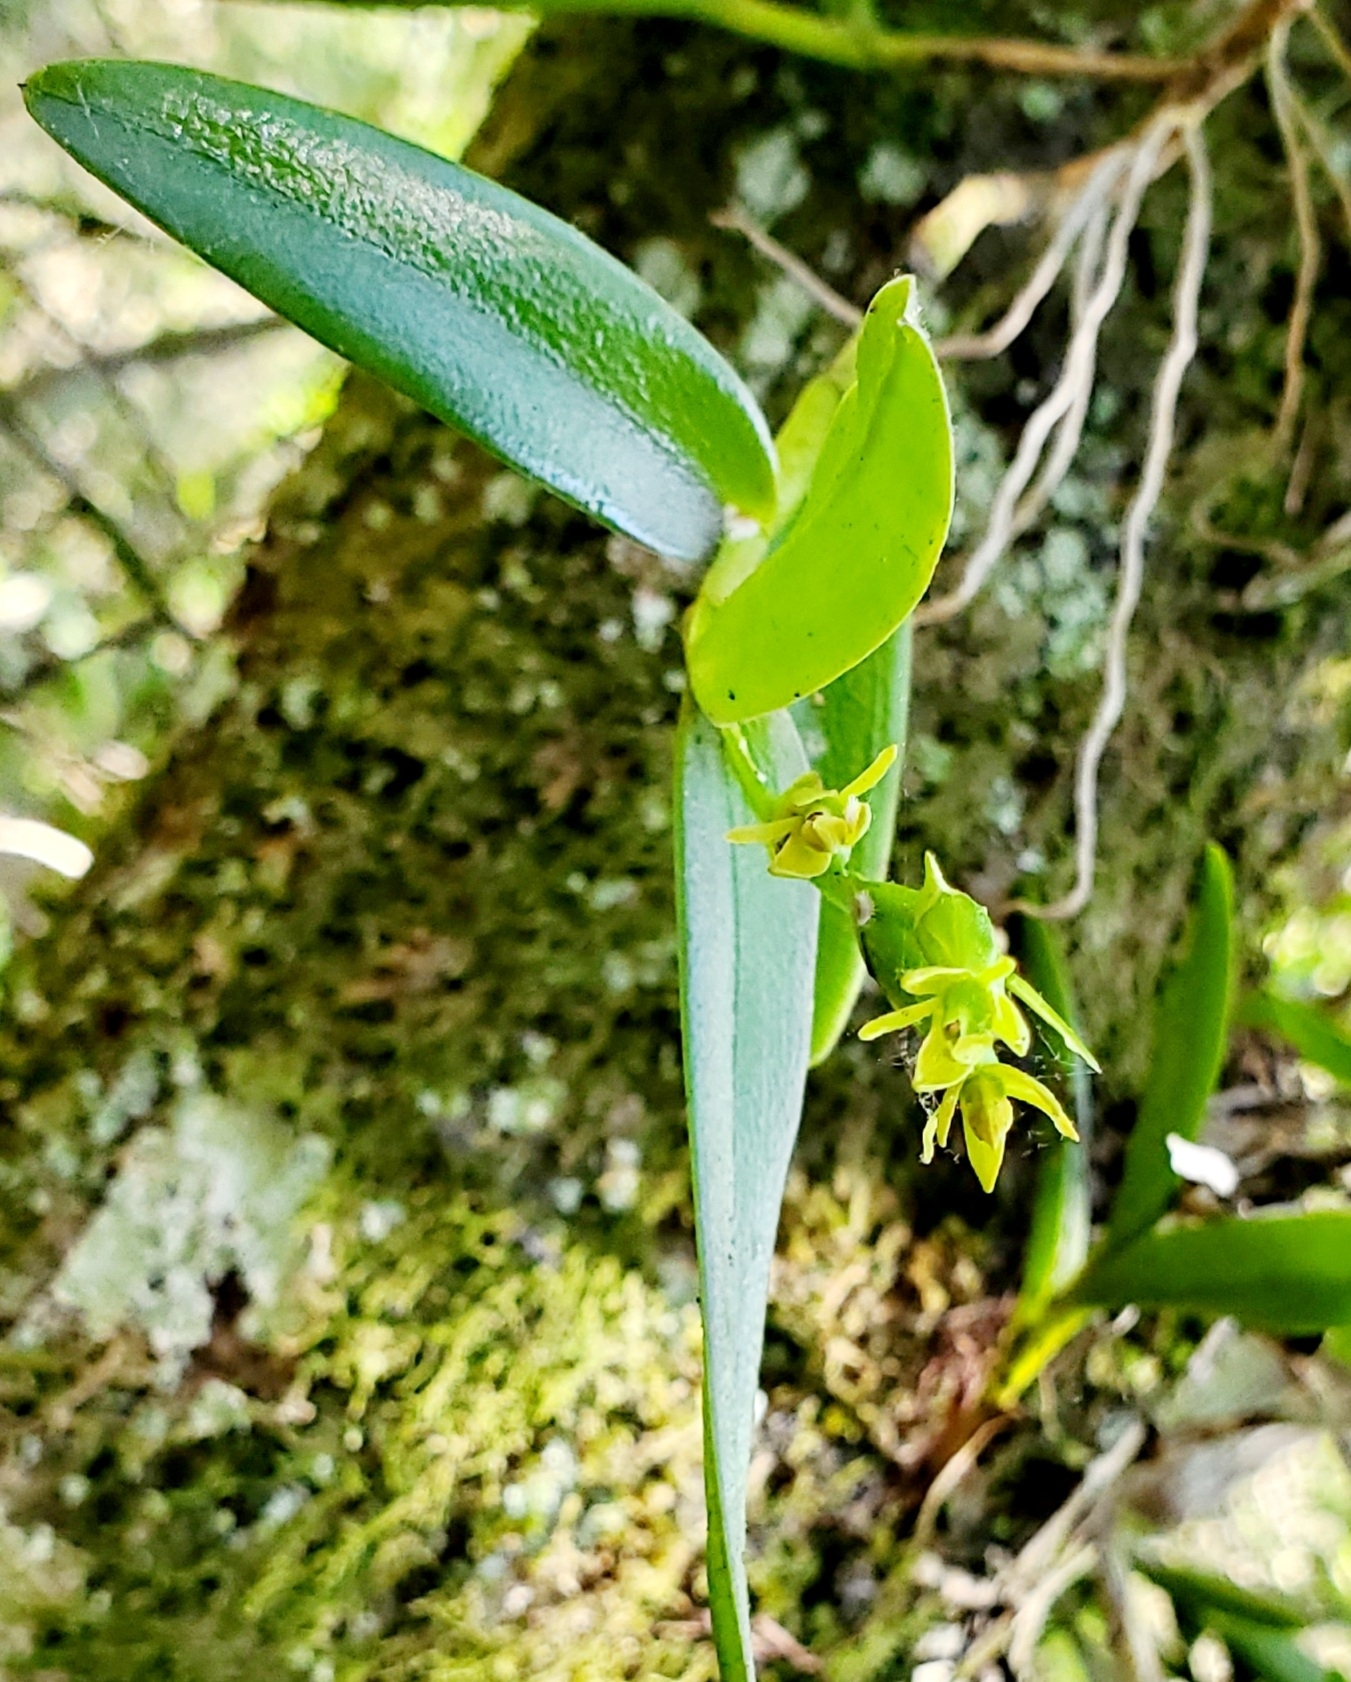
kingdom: Plantae
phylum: Tracheophyta
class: Liliopsida
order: Asparagales
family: Orchidaceae
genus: Epidendrum
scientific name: Epidendrum rigidum
